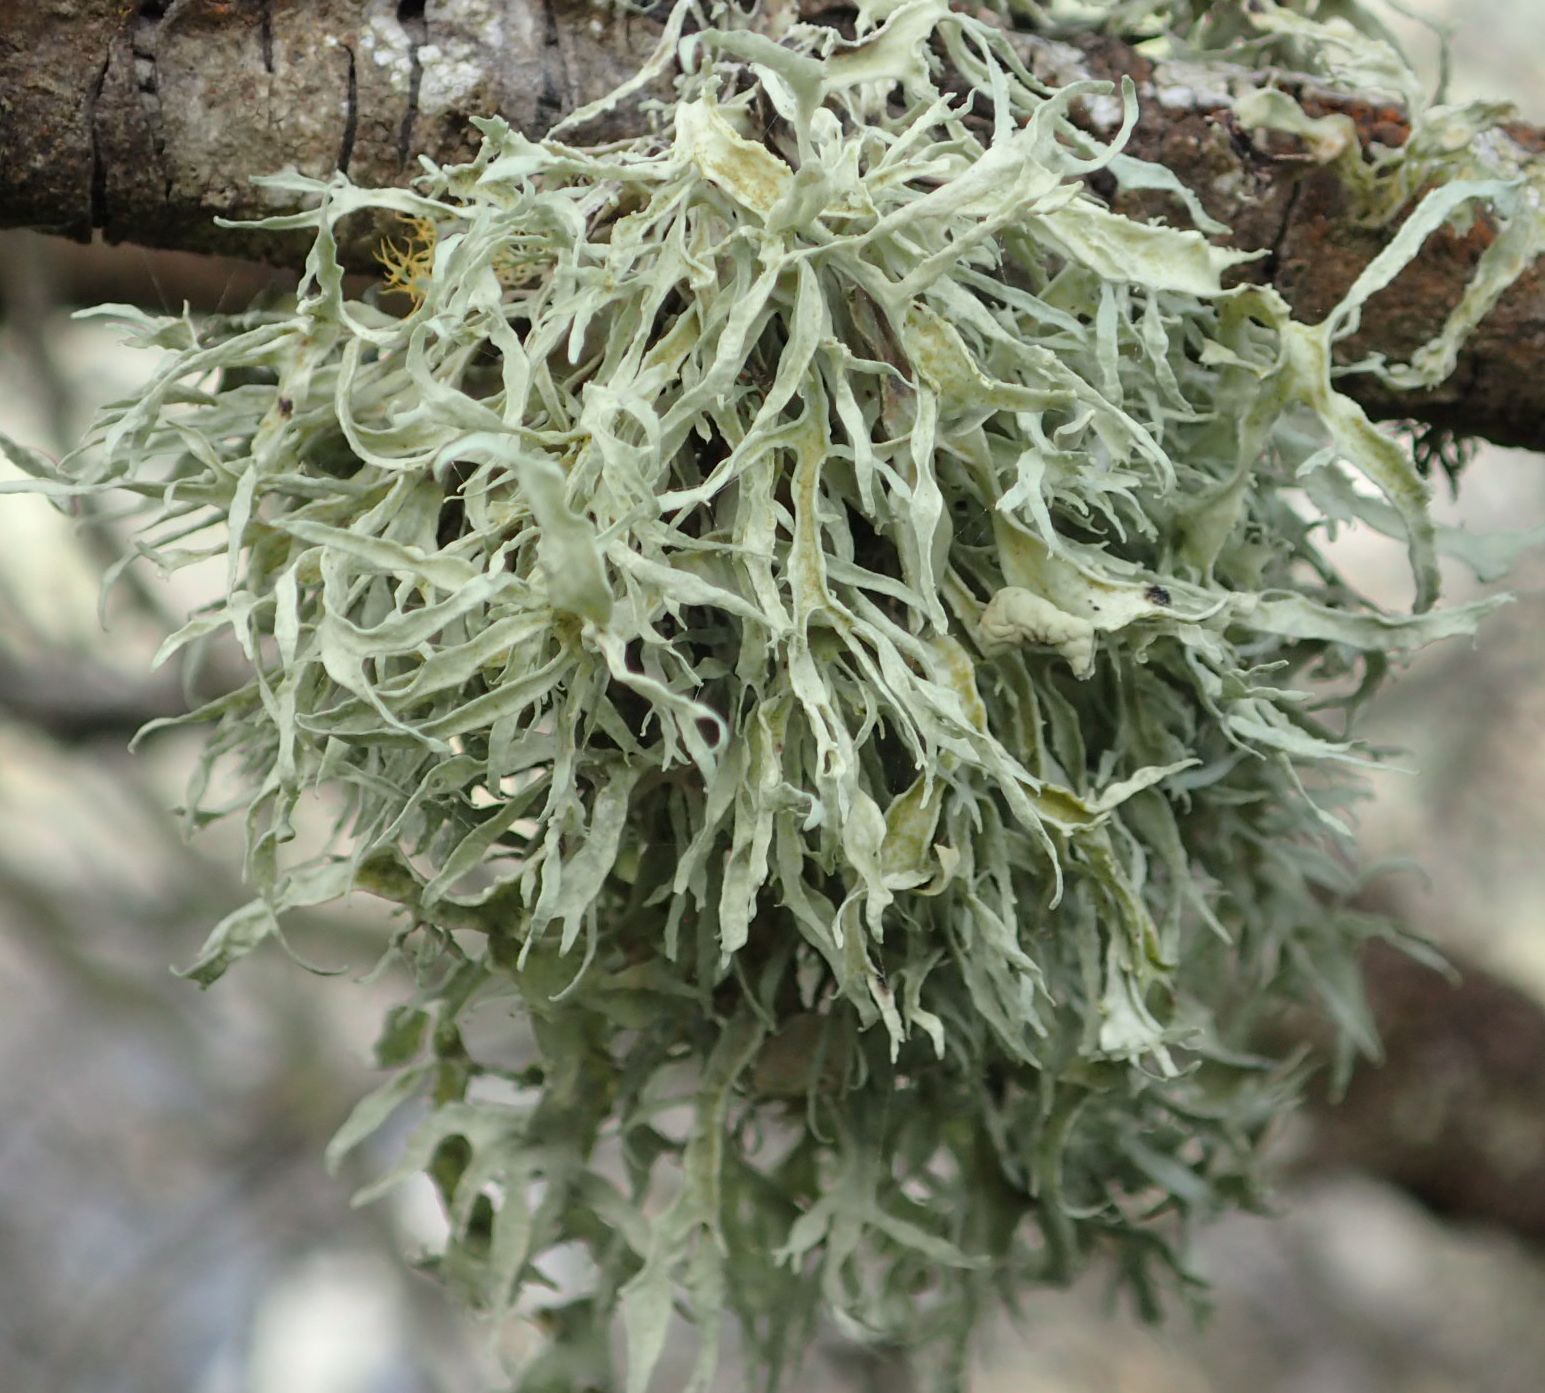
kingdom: Fungi
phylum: Ascomycota
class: Lecanoromycetes
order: Lecanorales
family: Ramalinaceae
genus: Ramalina
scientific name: Ramalina inflexa
